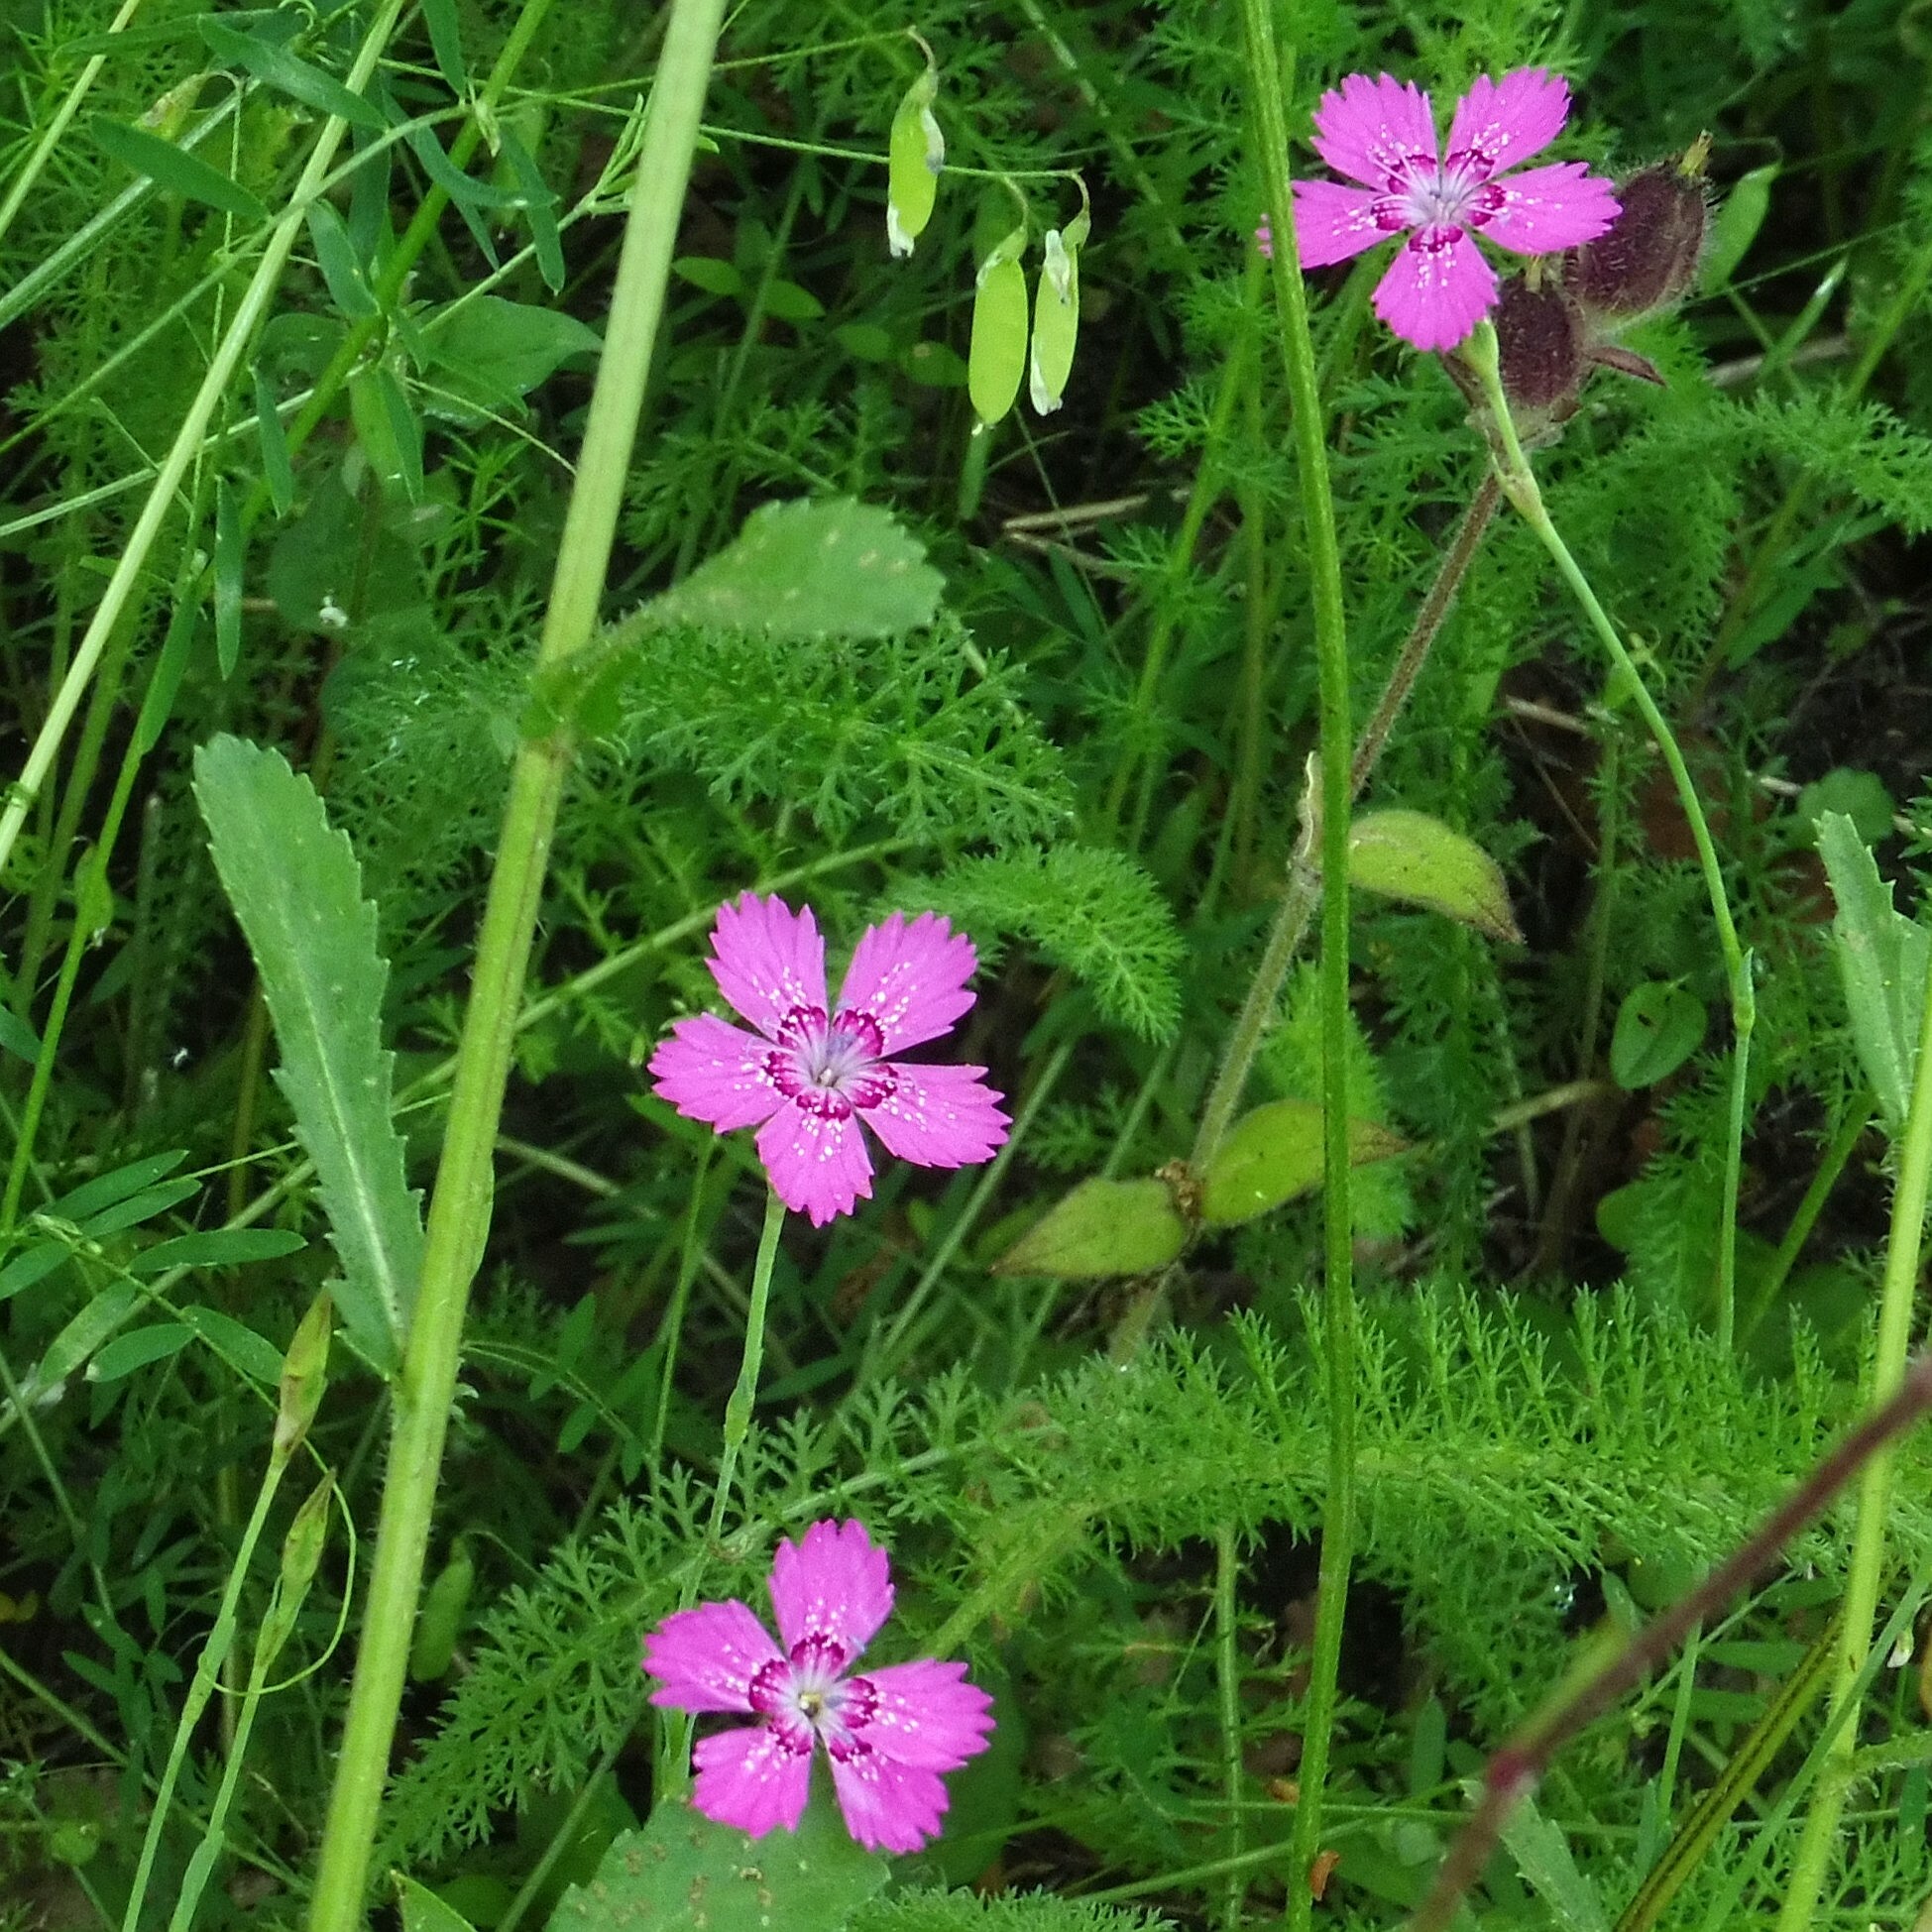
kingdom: Plantae
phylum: Tracheophyta
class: Magnoliopsida
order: Caryophyllales
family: Caryophyllaceae
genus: Dianthus
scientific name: Dianthus deltoides
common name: Maiden pink
